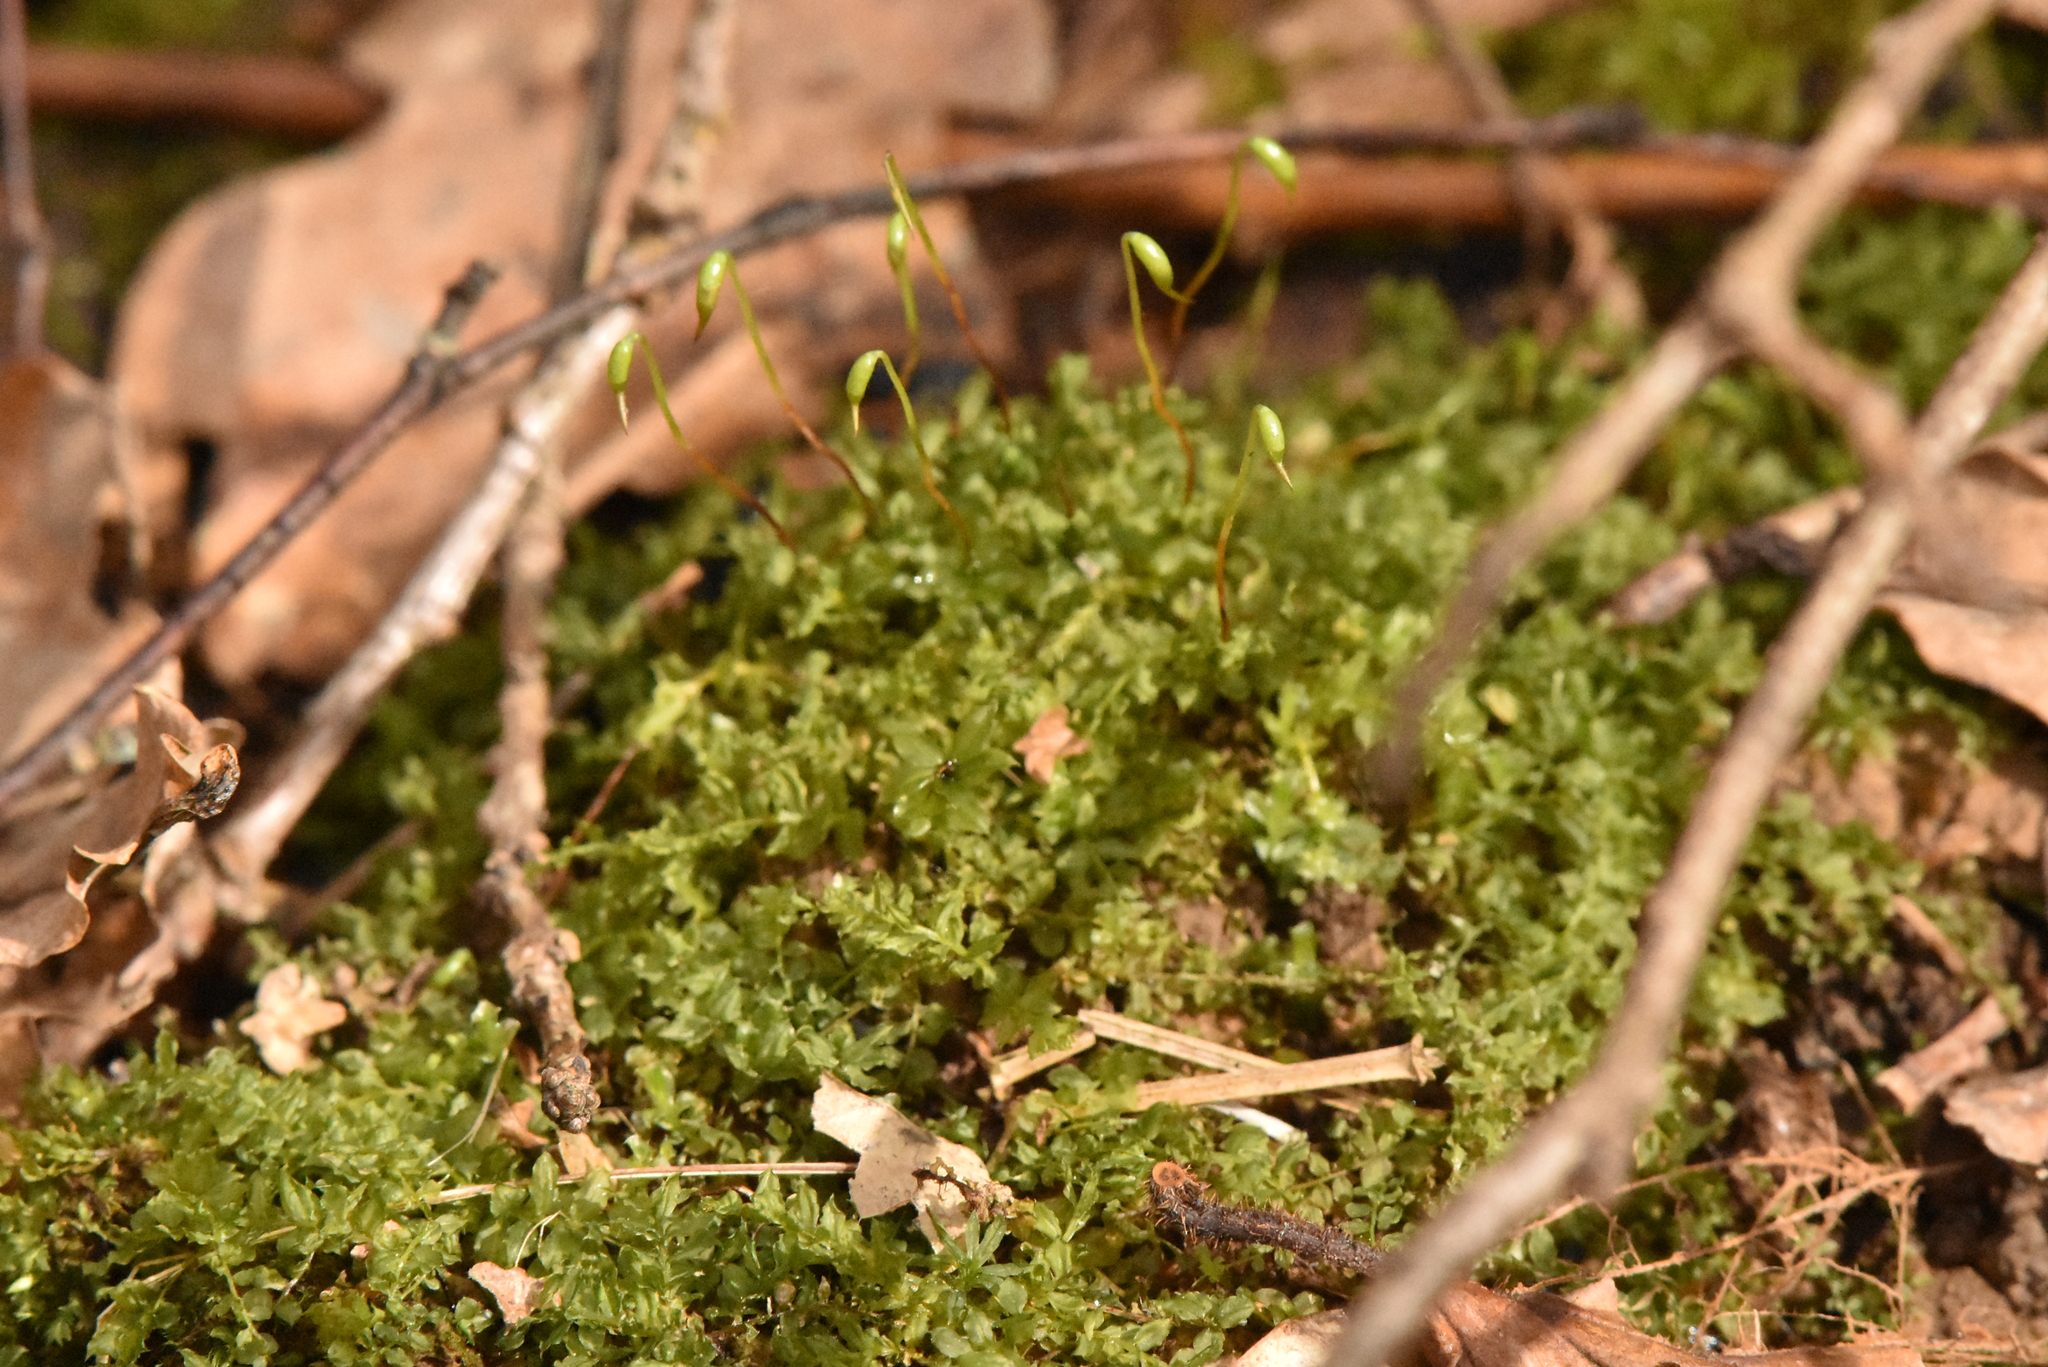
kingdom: Plantae
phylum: Bryophyta
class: Bryopsida
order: Bryales
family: Mniaceae
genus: Plagiomnium
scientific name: Plagiomnium cuspidatum
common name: Woodsy leafy moss
